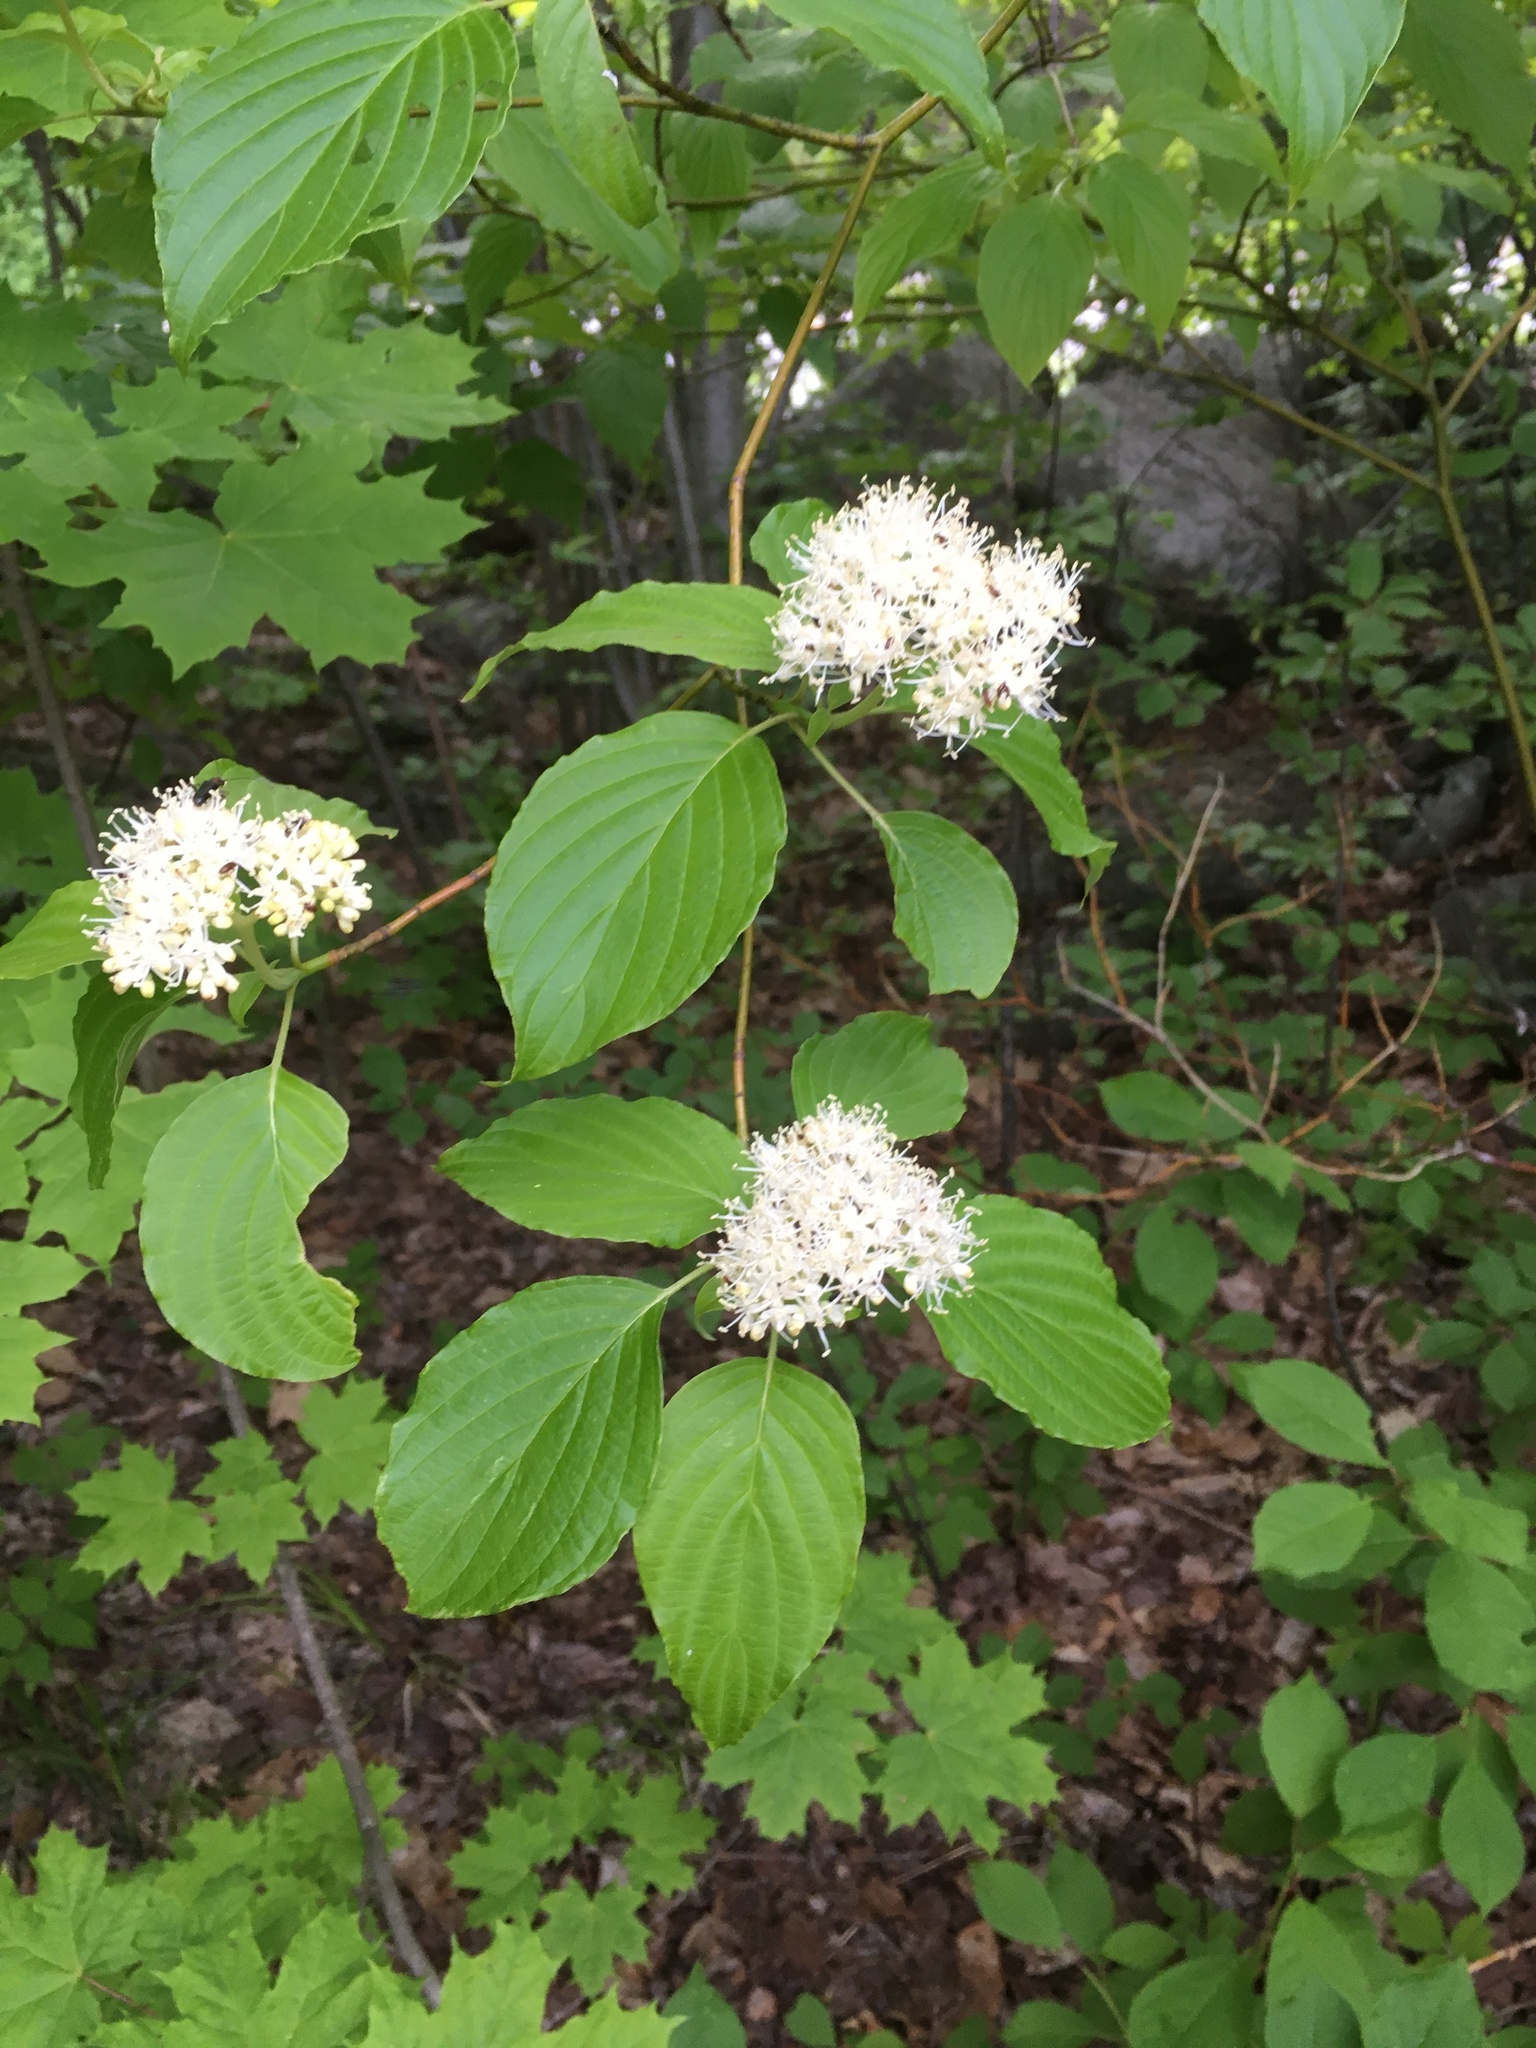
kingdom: Plantae
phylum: Tracheophyta
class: Magnoliopsida
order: Cornales
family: Cornaceae
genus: Cornus
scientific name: Cornus alternifolia
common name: Pagoda dogwood
